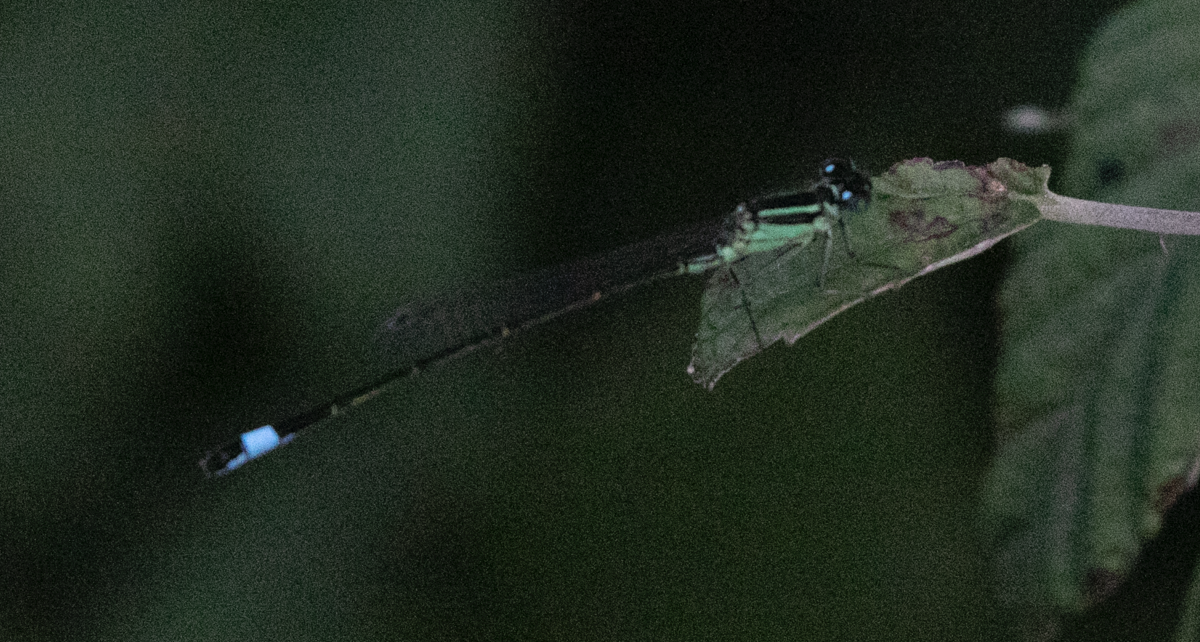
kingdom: Animalia
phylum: Arthropoda
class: Insecta
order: Odonata
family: Coenagrionidae
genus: Ischnura
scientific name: Ischnura elegans
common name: Blue-tailed damselfly
